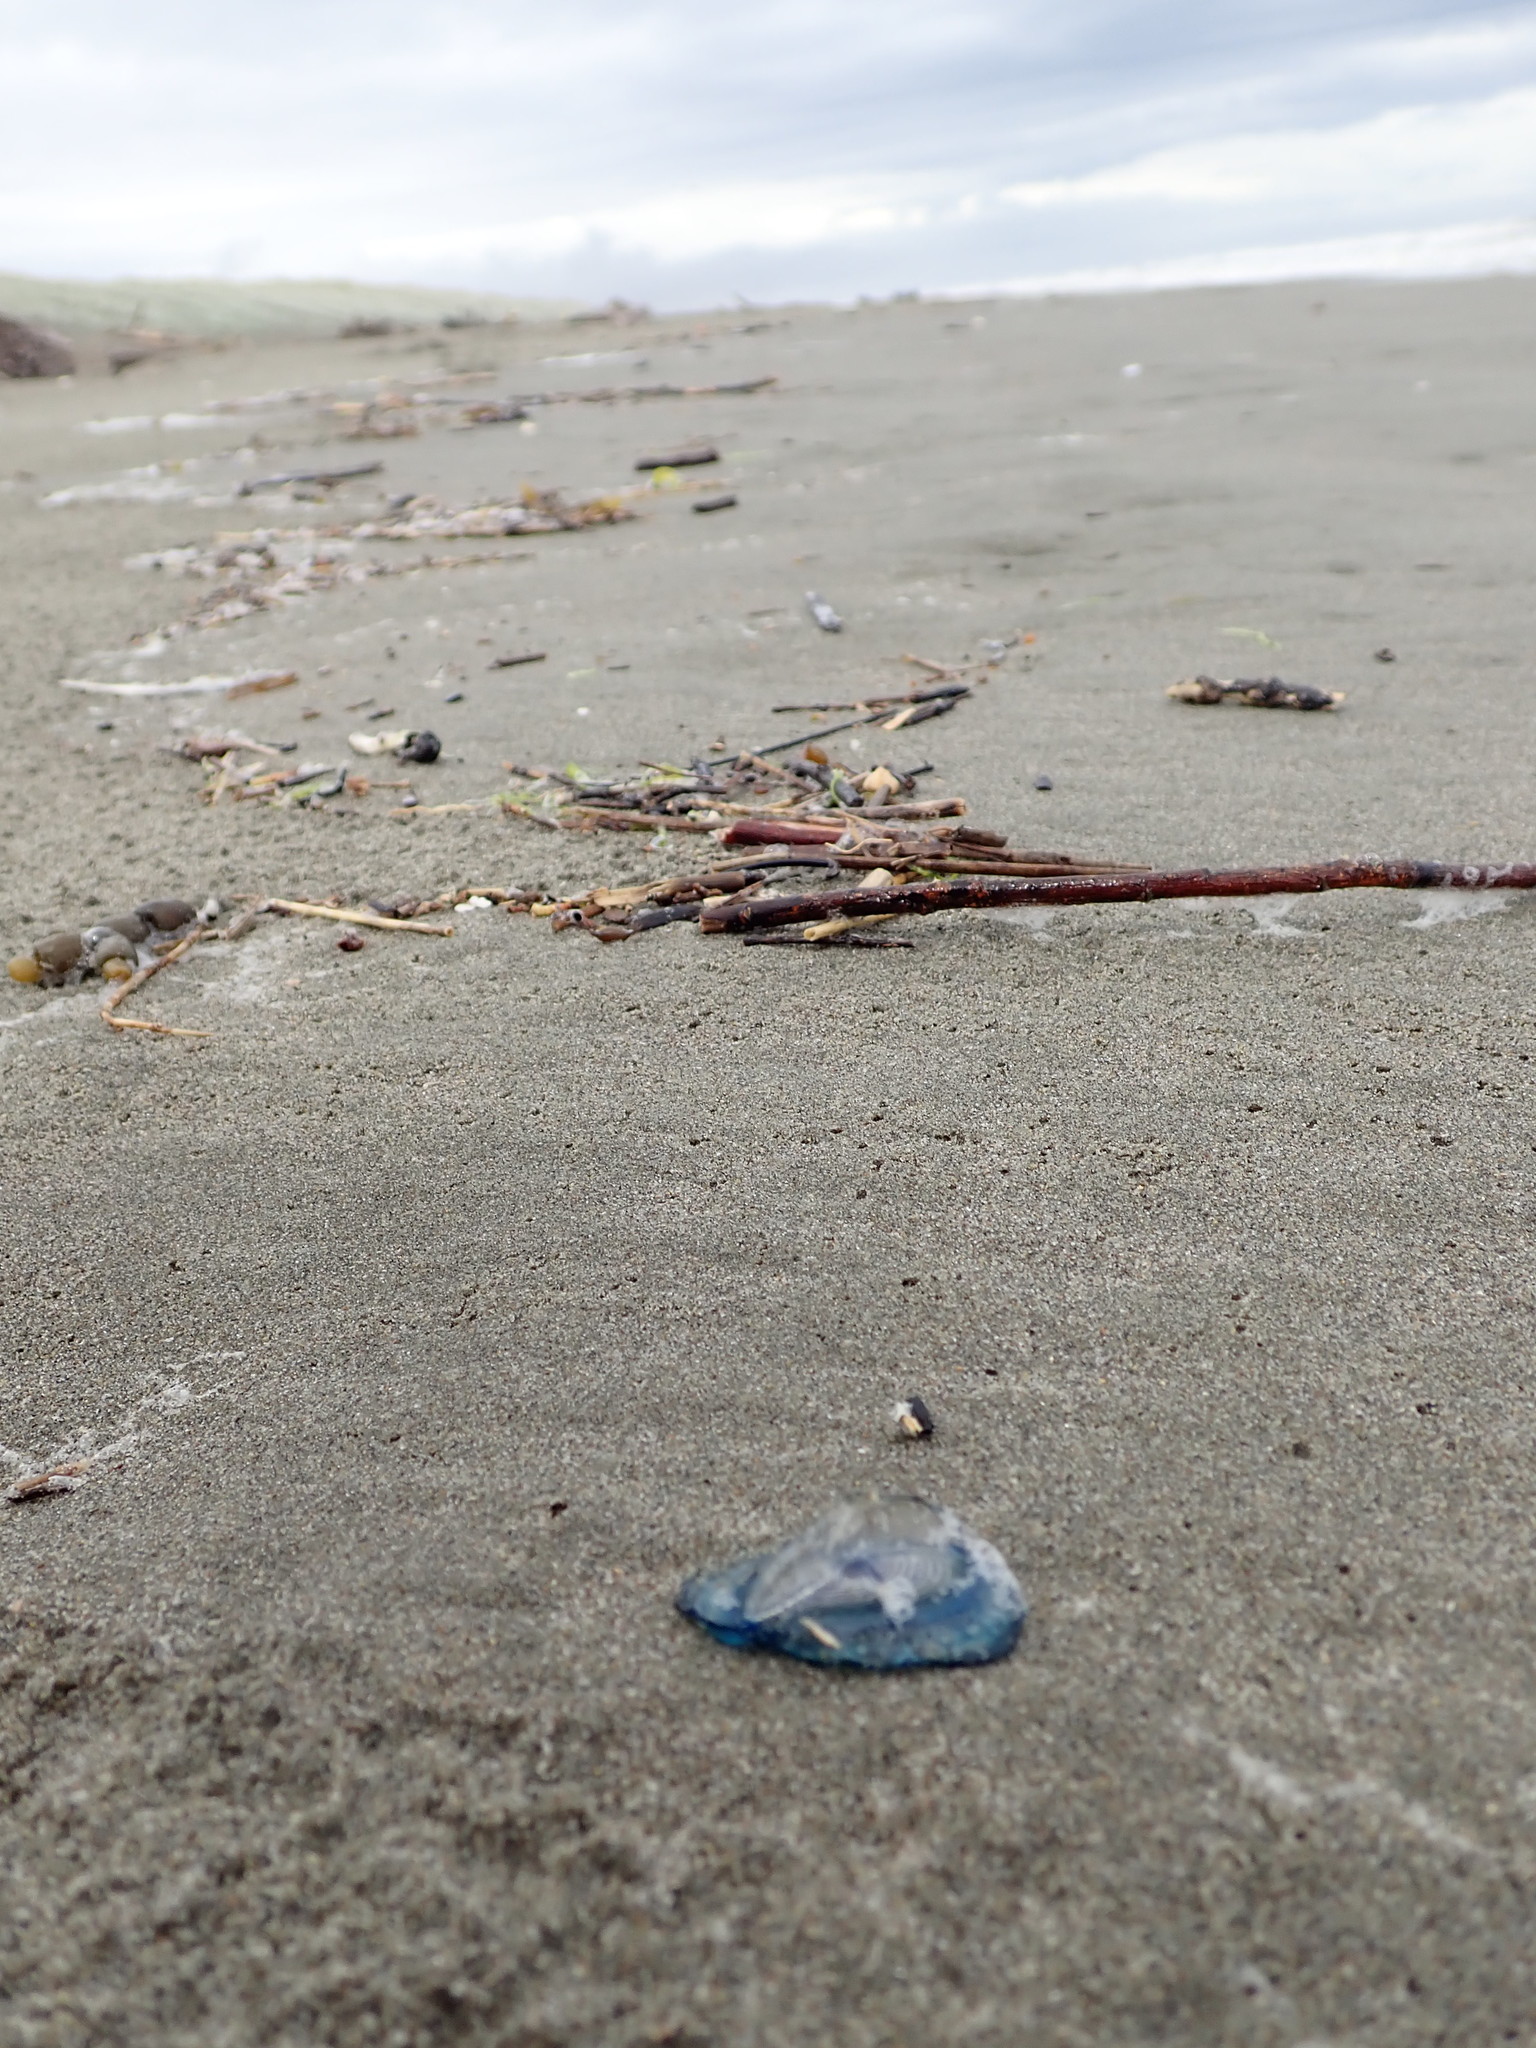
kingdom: Animalia
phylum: Cnidaria
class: Hydrozoa
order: Anthoathecata
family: Porpitidae
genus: Velella
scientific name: Velella velella
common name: By-the-wind-sailor
